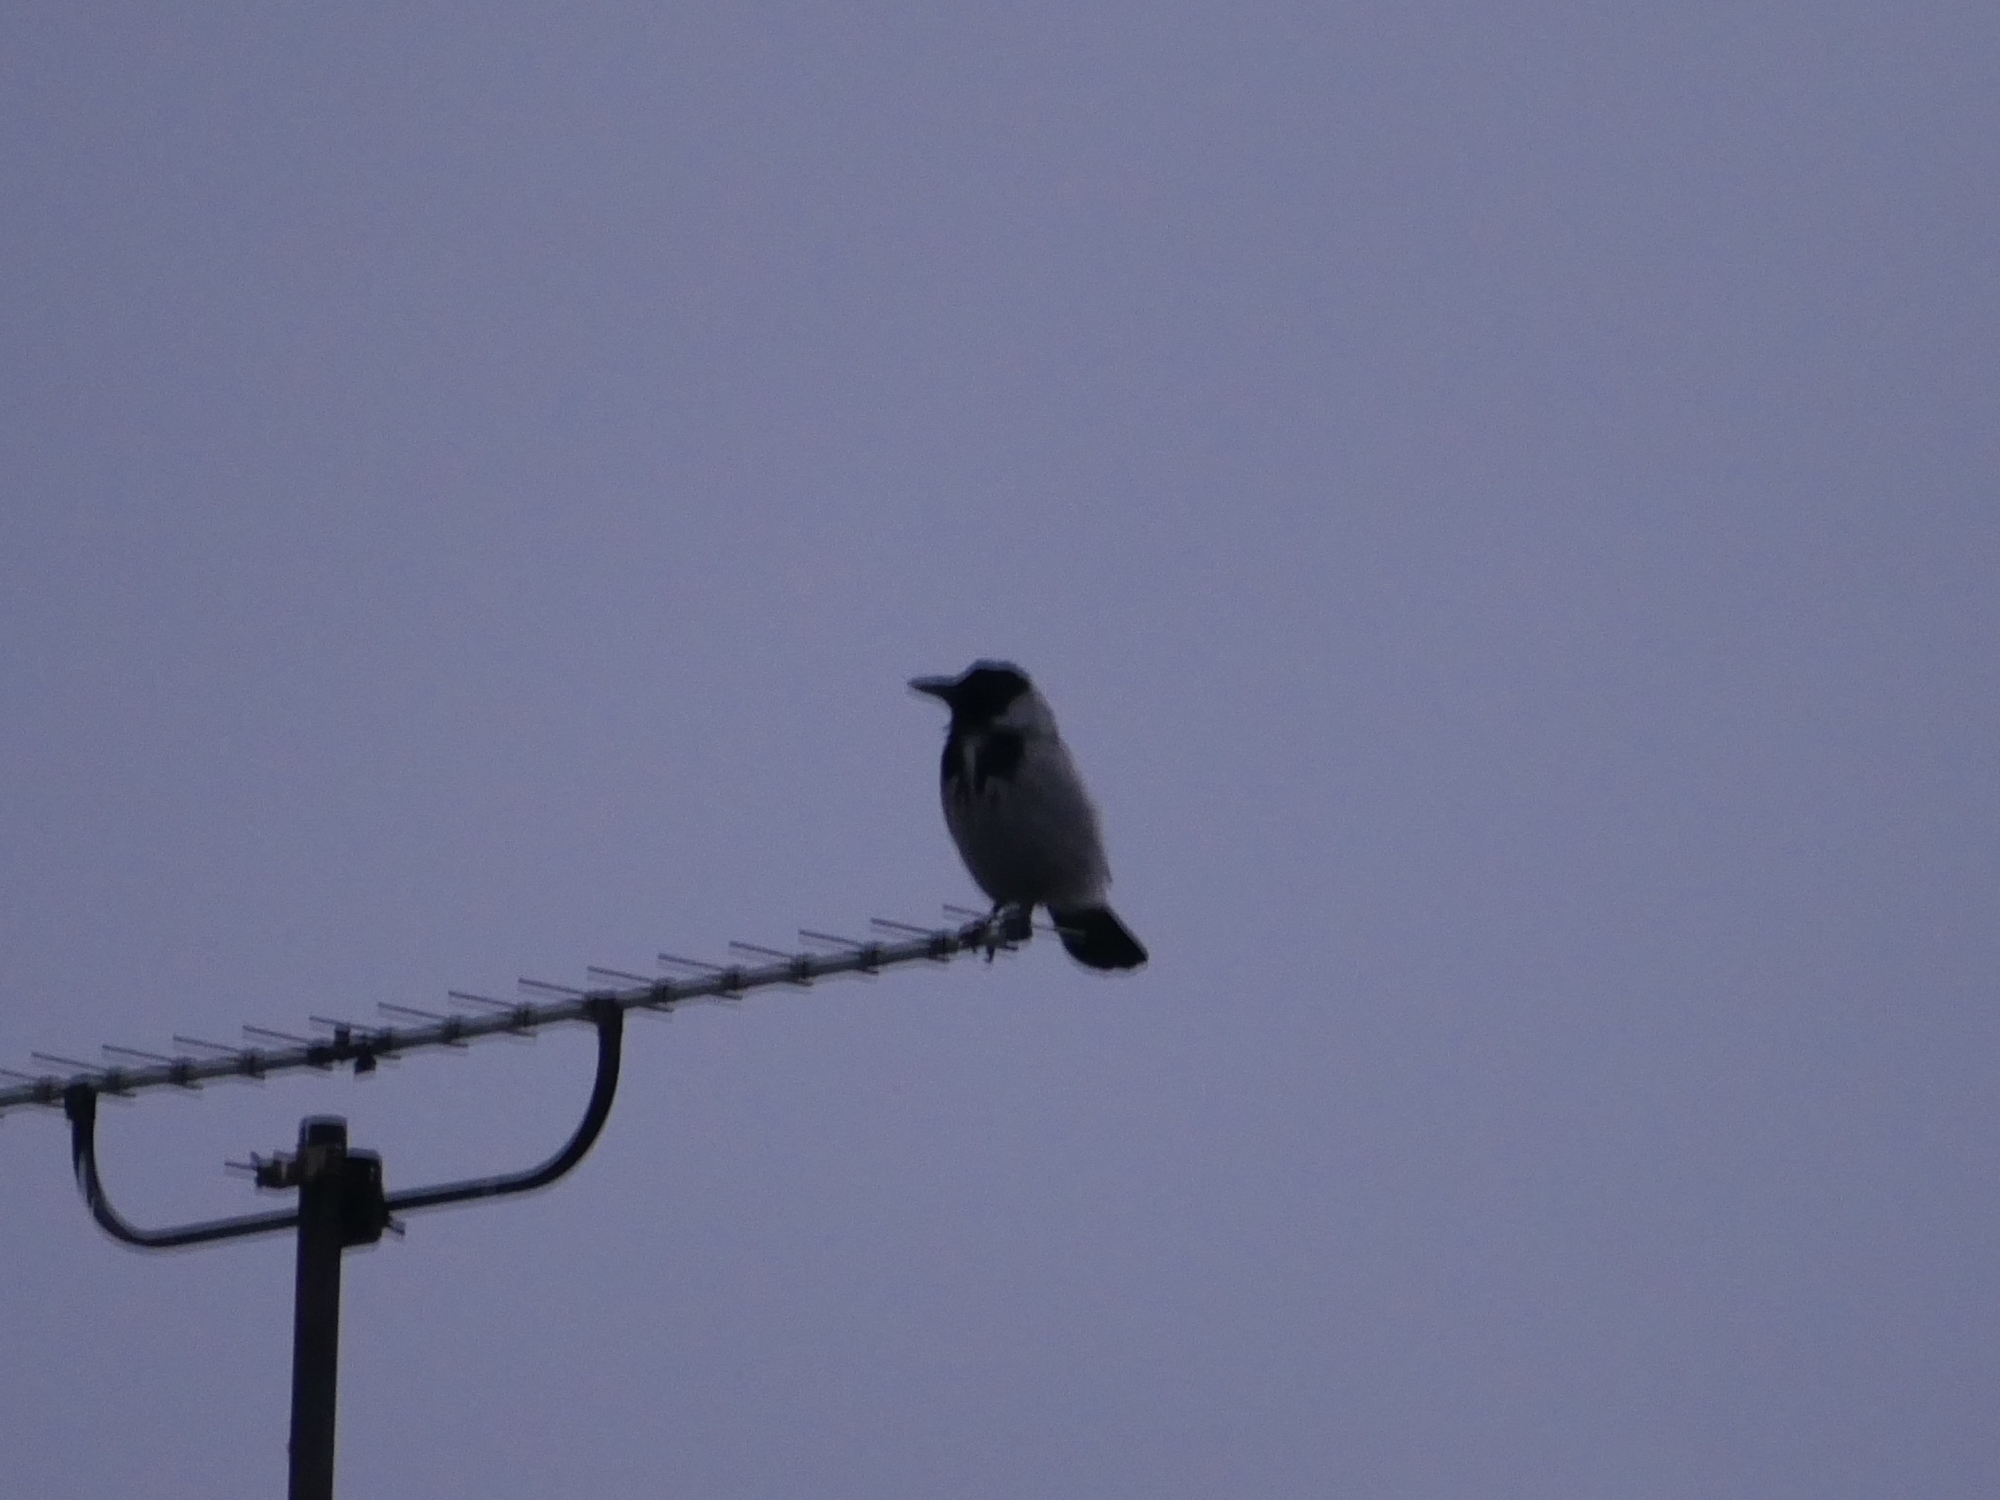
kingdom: Animalia
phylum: Chordata
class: Aves
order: Passeriformes
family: Corvidae
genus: Corvus
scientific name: Corvus cornix
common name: Hooded crow
